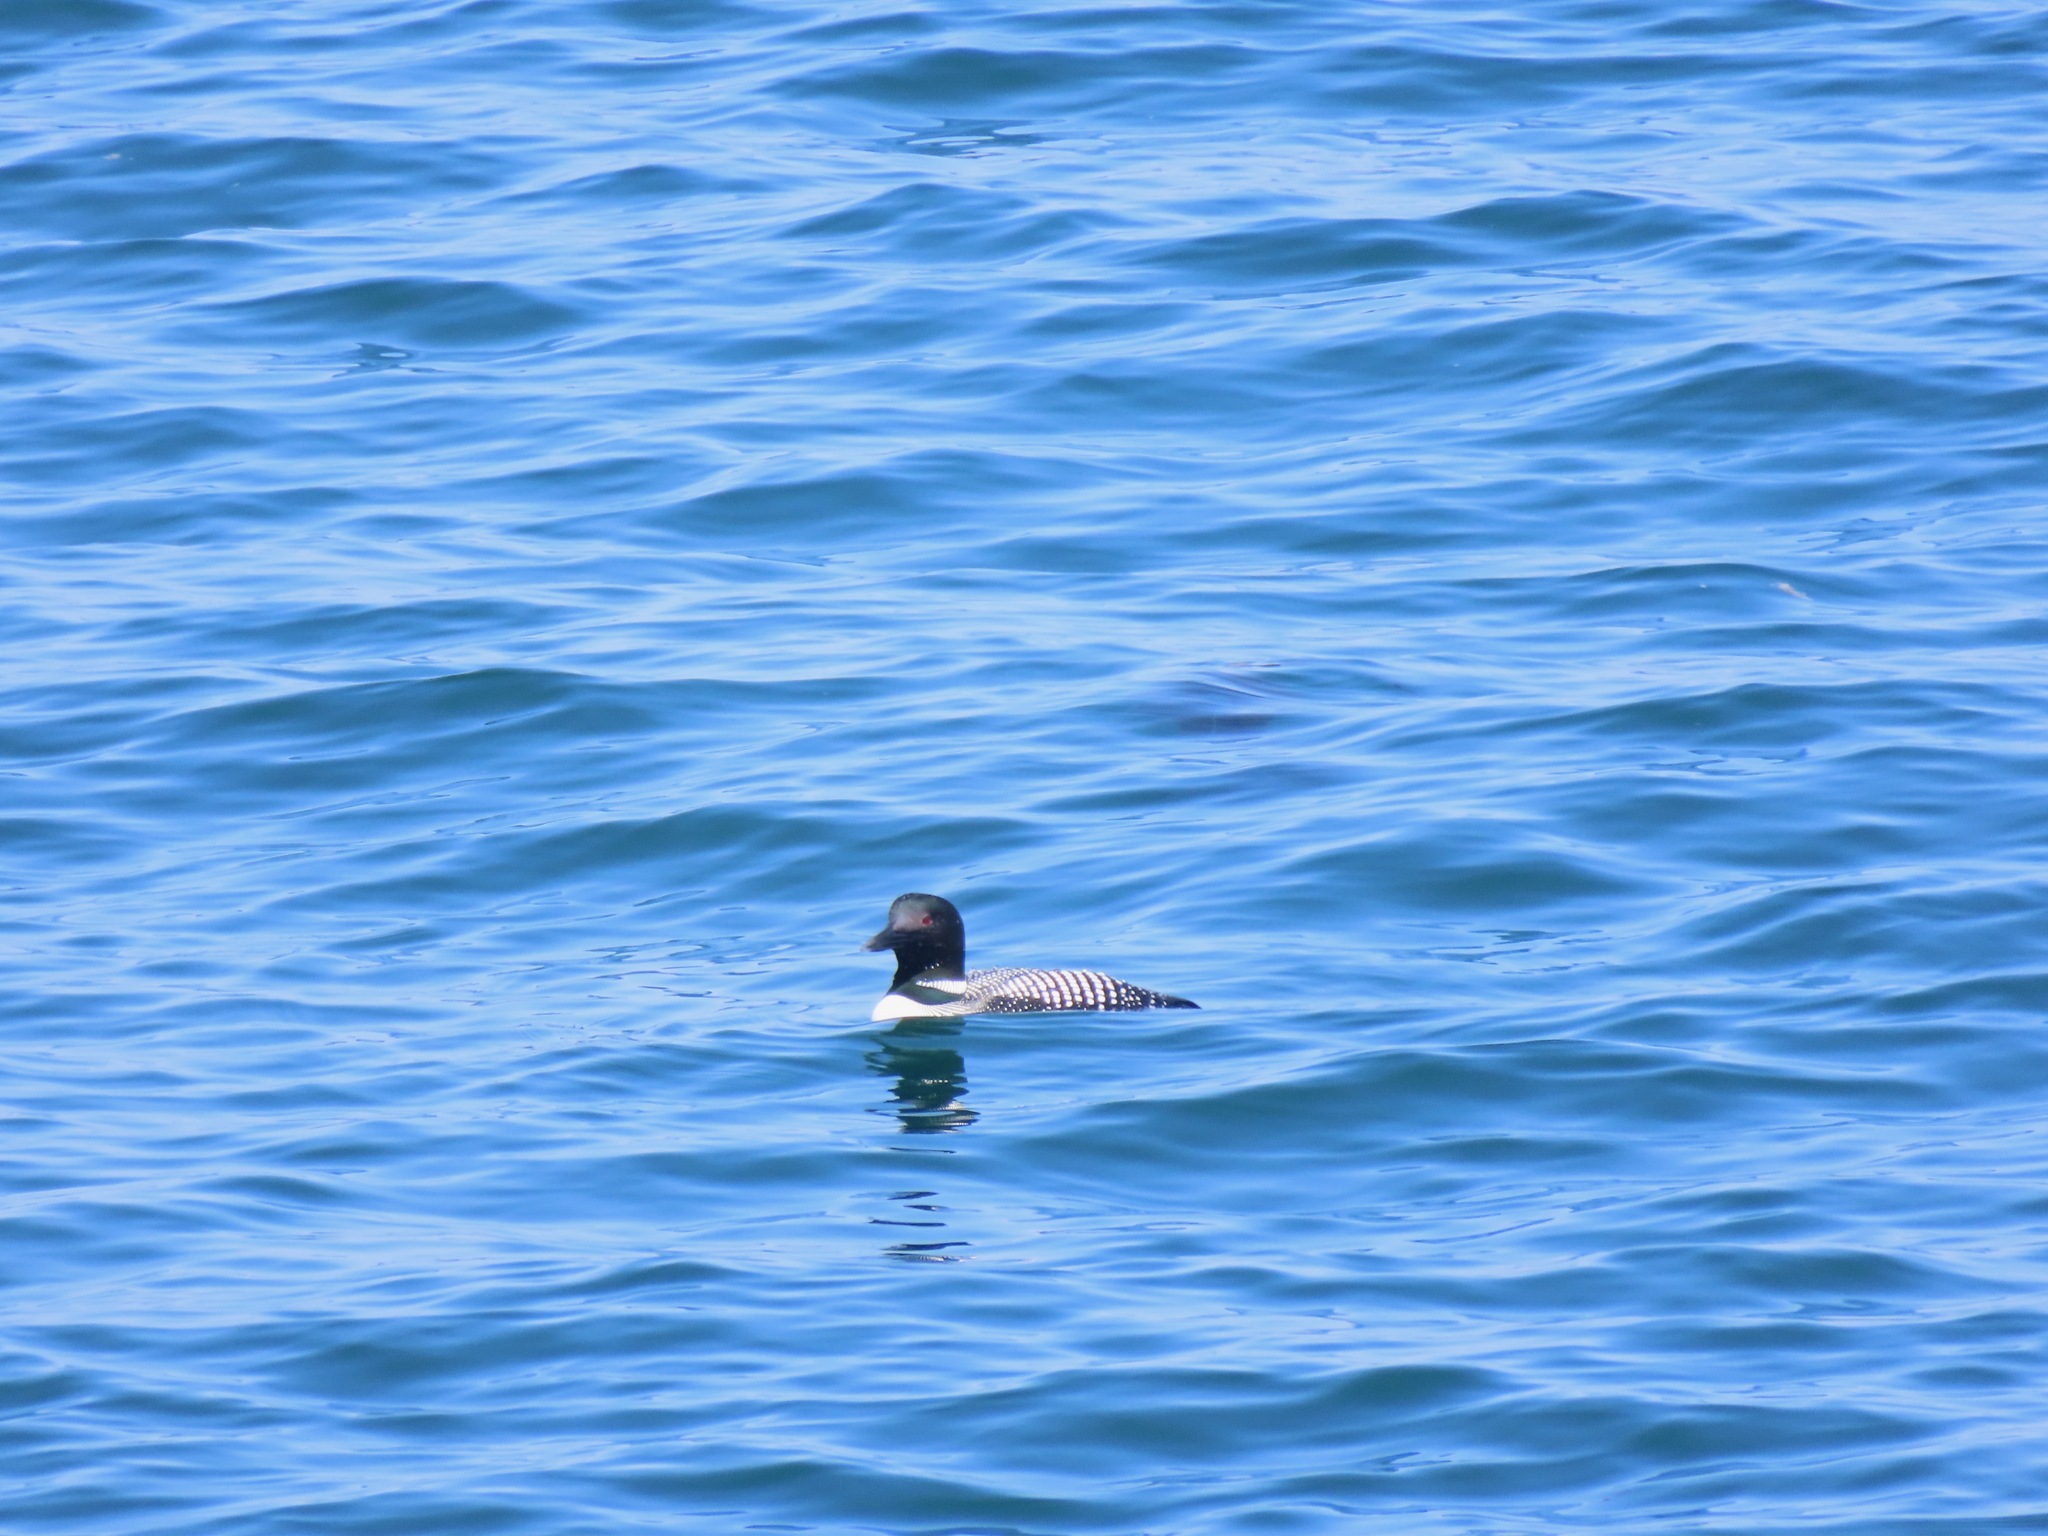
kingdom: Animalia
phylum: Chordata
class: Aves
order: Gaviiformes
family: Gaviidae
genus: Gavia
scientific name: Gavia immer
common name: Common loon
